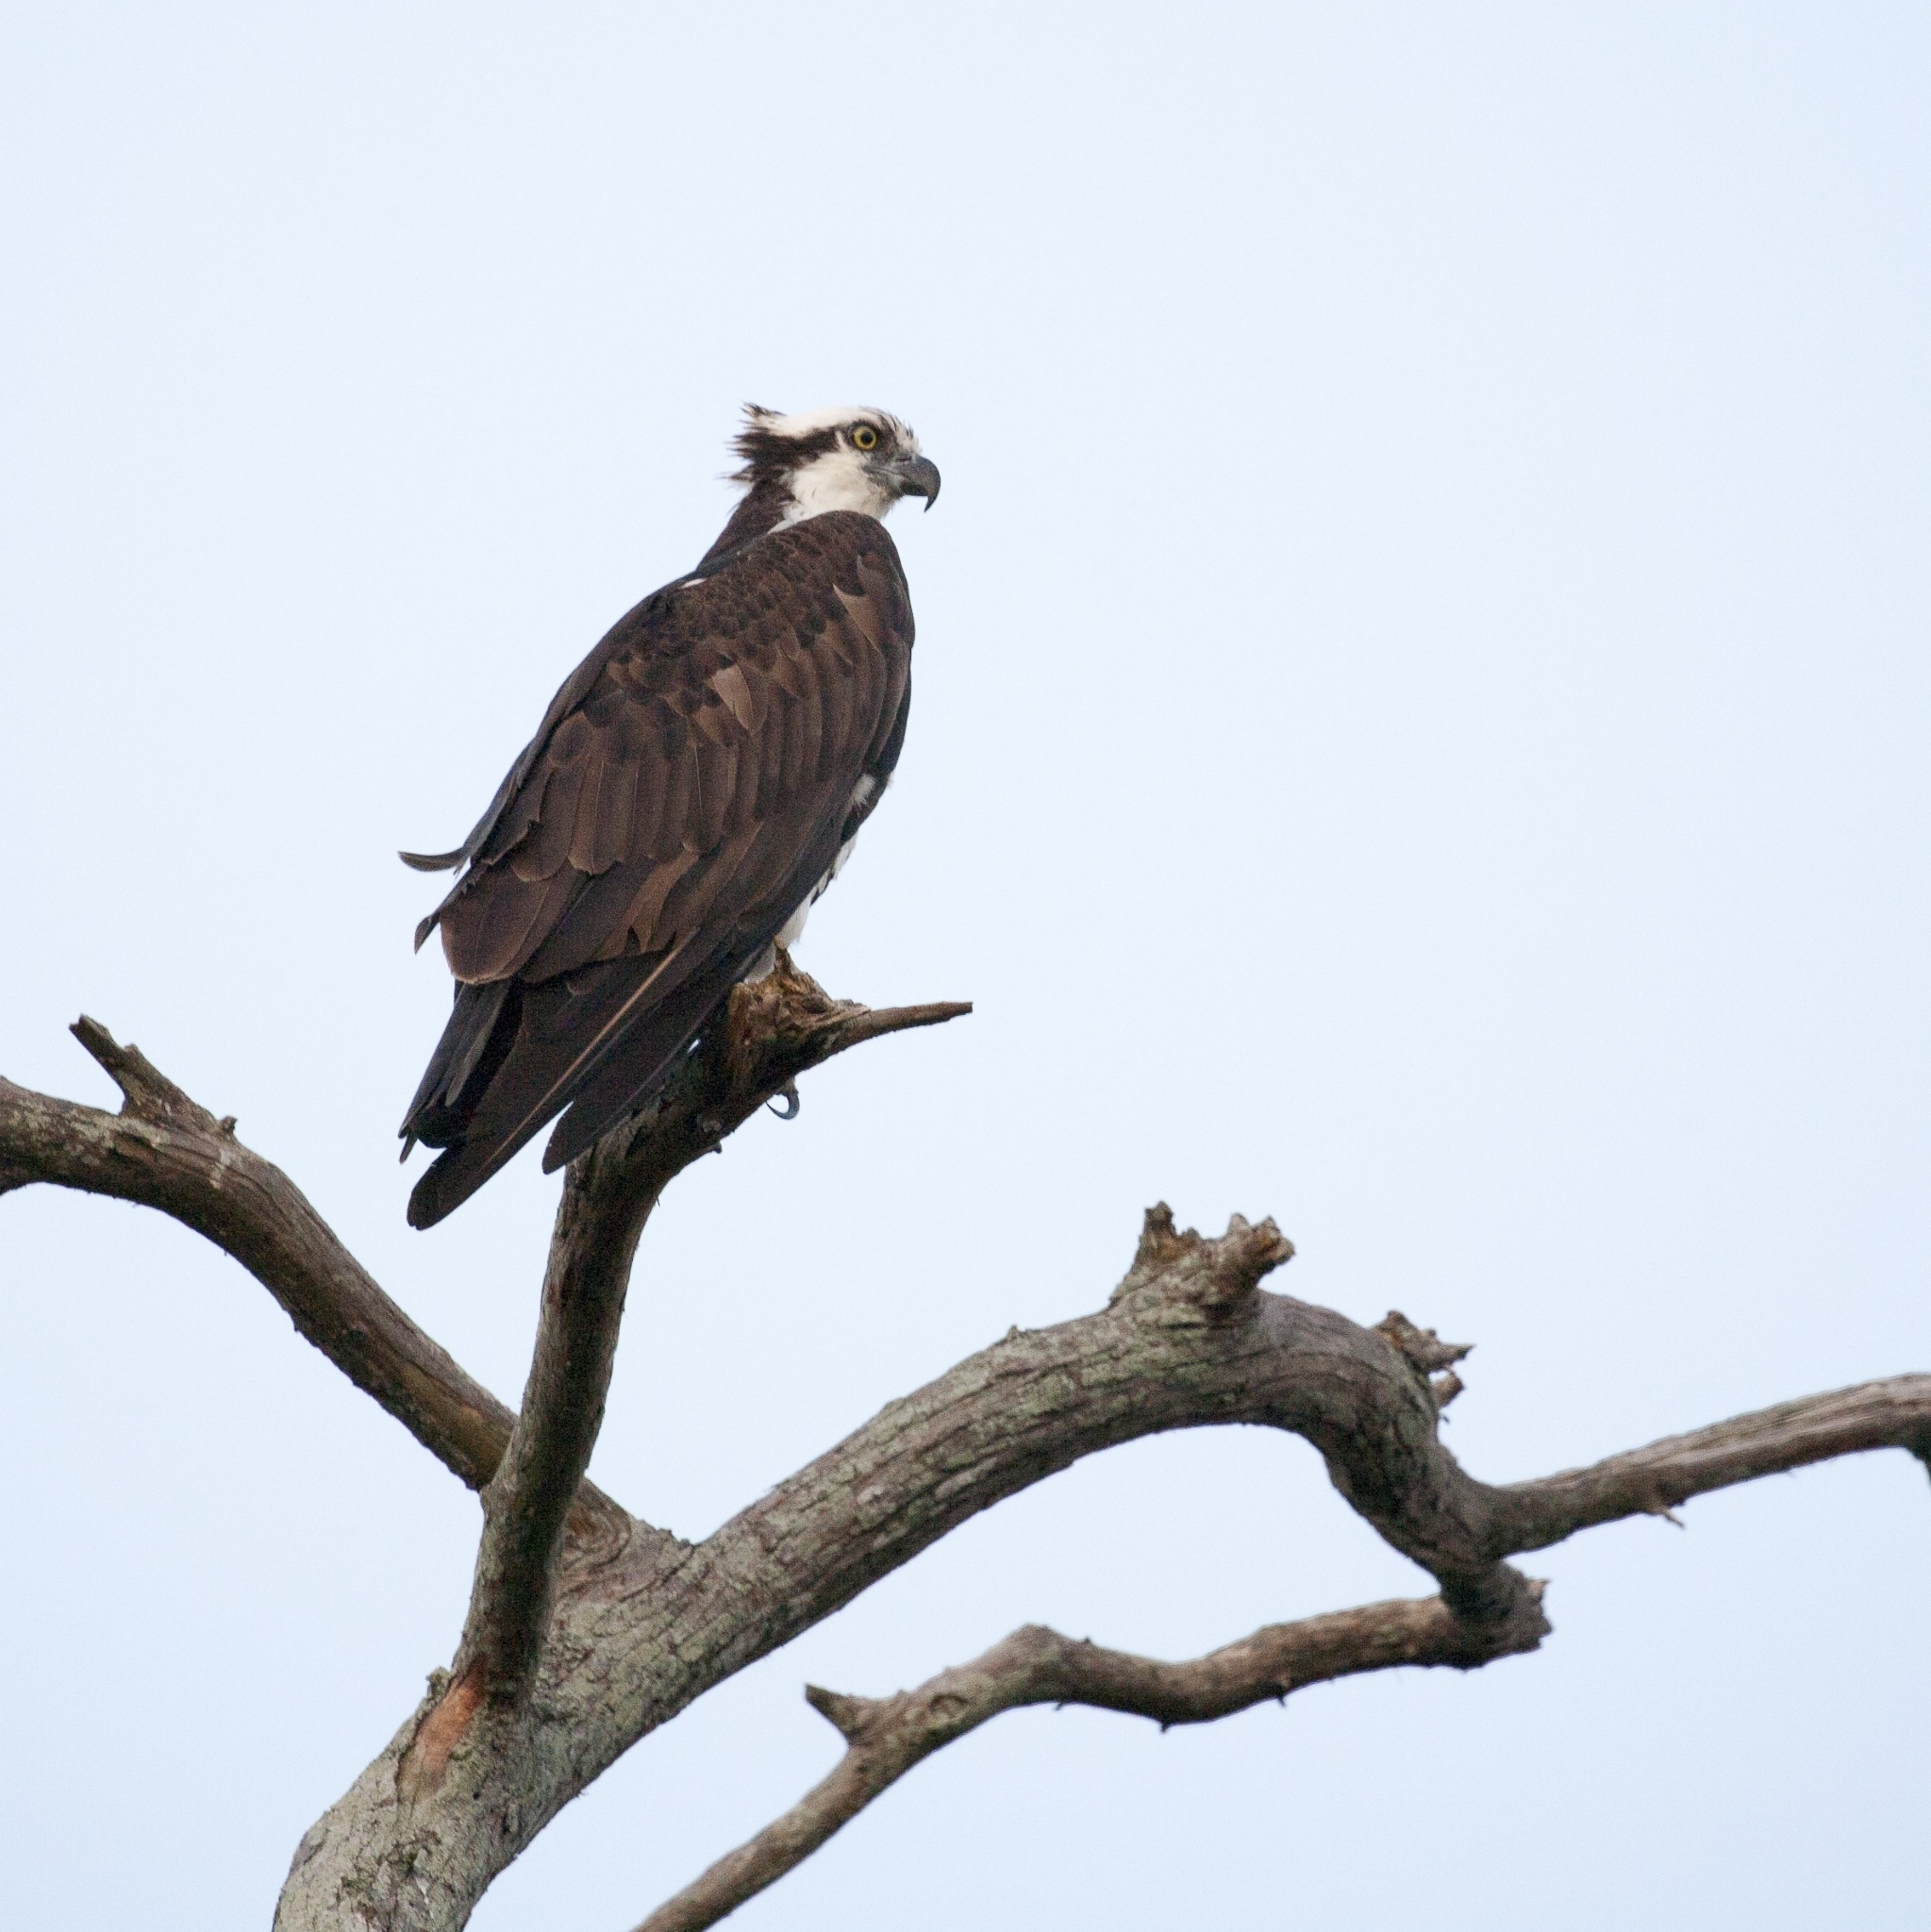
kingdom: Animalia
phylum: Chordata
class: Aves
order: Accipitriformes
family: Pandionidae
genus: Pandion
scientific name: Pandion haliaetus
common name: Osprey
